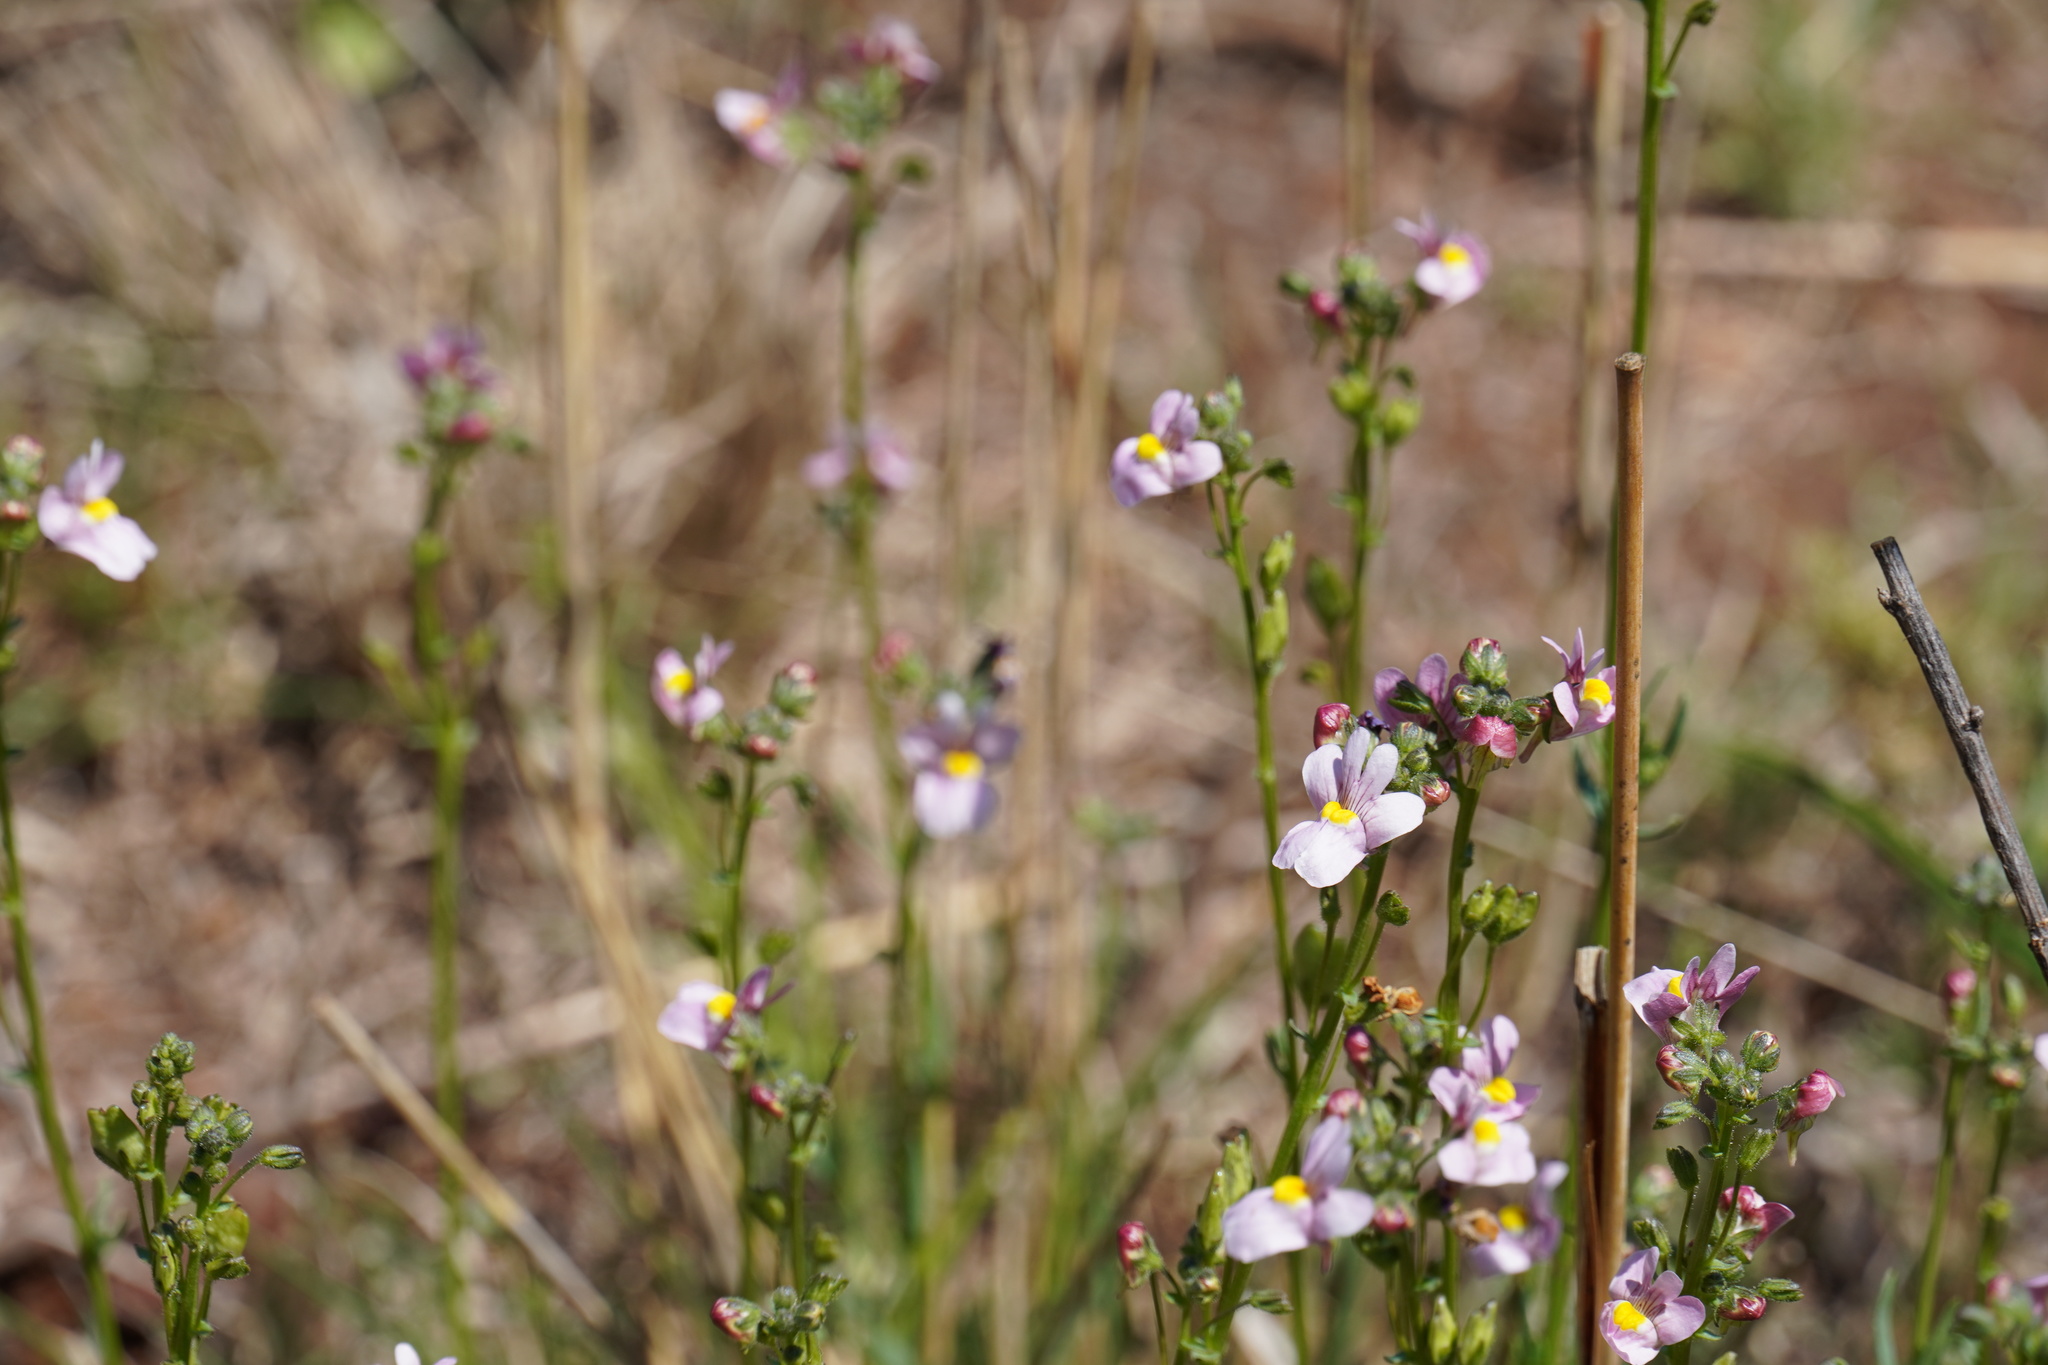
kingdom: Plantae
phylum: Tracheophyta
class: Magnoliopsida
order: Lamiales
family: Scrophulariaceae
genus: Nemesia
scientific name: Nemesia fruticans
